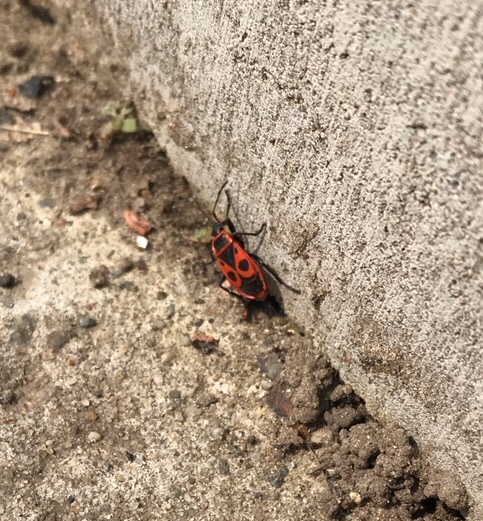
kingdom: Animalia
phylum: Arthropoda
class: Insecta
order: Hemiptera
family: Pyrrhocoridae
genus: Pyrrhocoris
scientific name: Pyrrhocoris apterus
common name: Firebug
